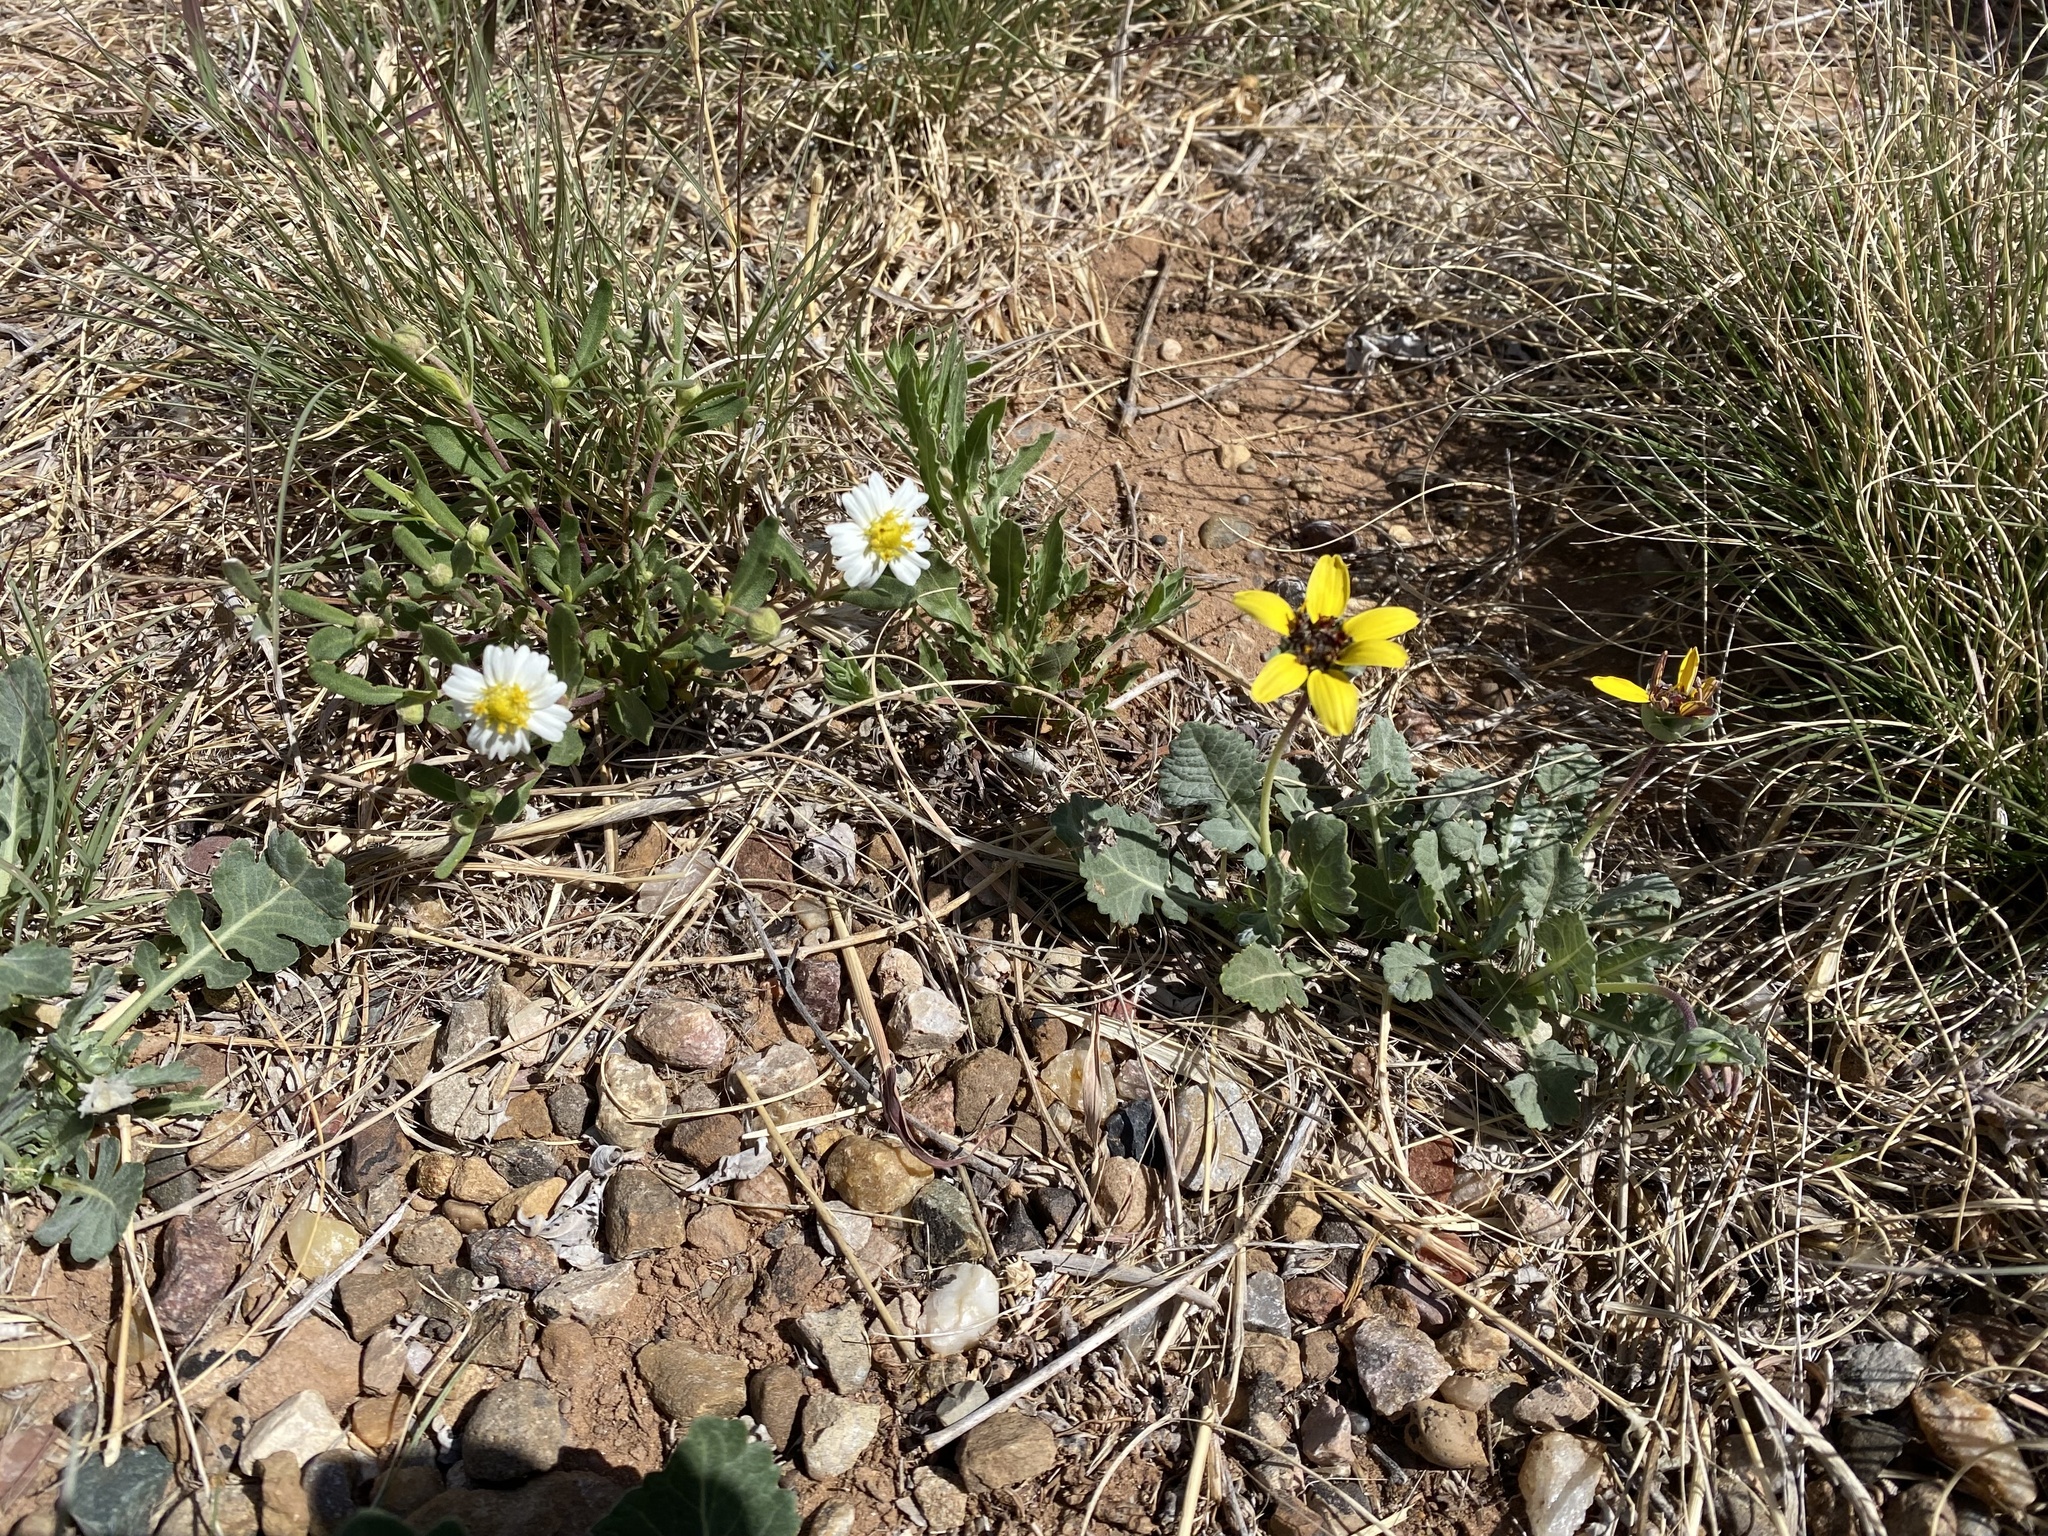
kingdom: Plantae
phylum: Tracheophyta
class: Magnoliopsida
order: Asterales
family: Asteraceae
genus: Berlandiera
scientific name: Berlandiera lyrata
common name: Chocolate-flower
